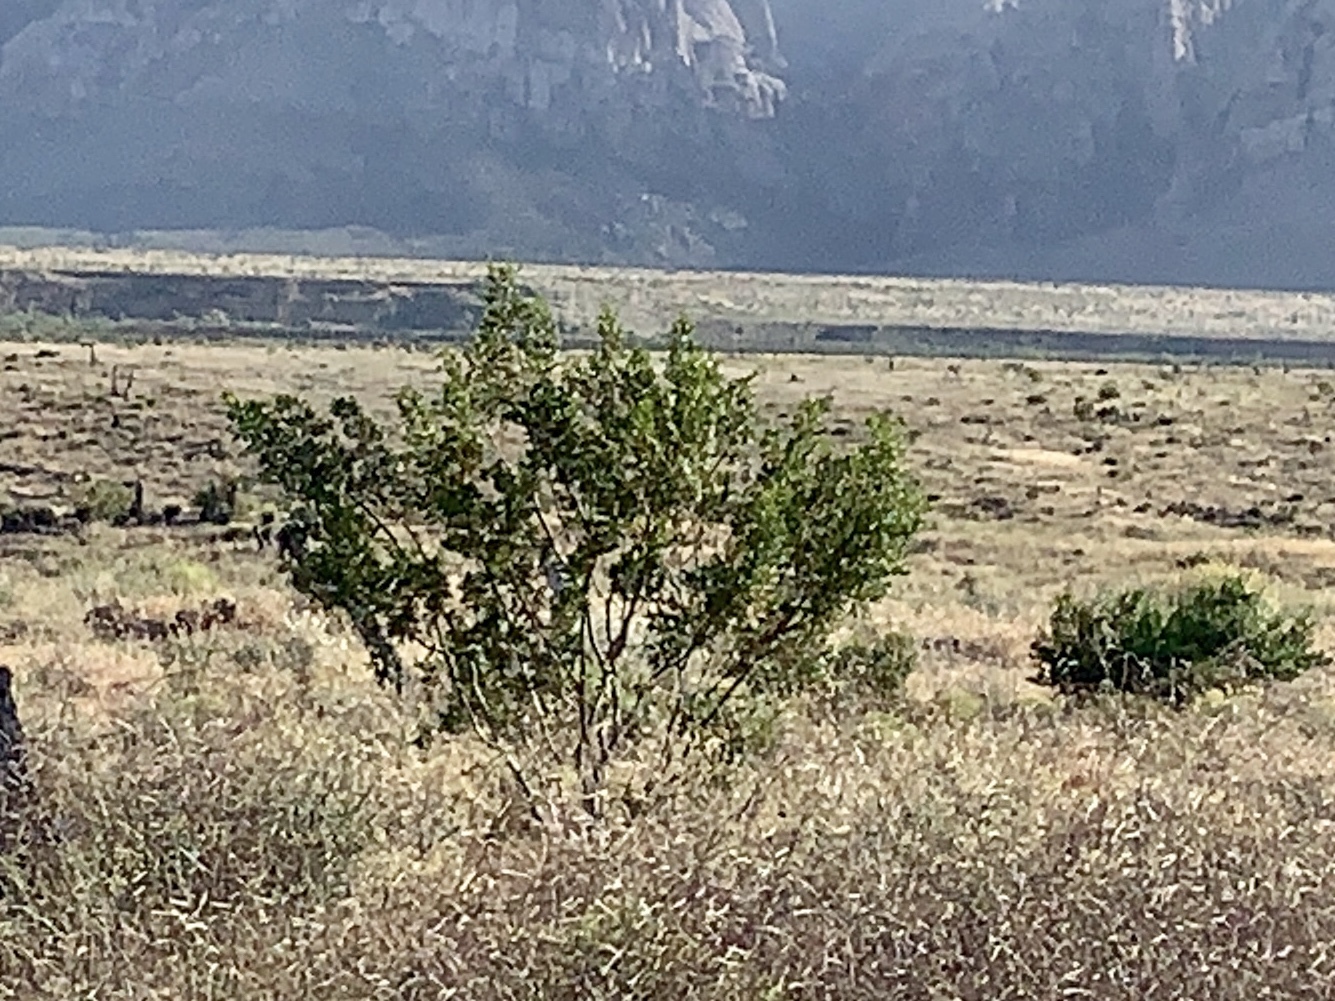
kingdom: Plantae
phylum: Tracheophyta
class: Magnoliopsida
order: Zygophyllales
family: Zygophyllaceae
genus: Larrea
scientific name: Larrea tridentata
